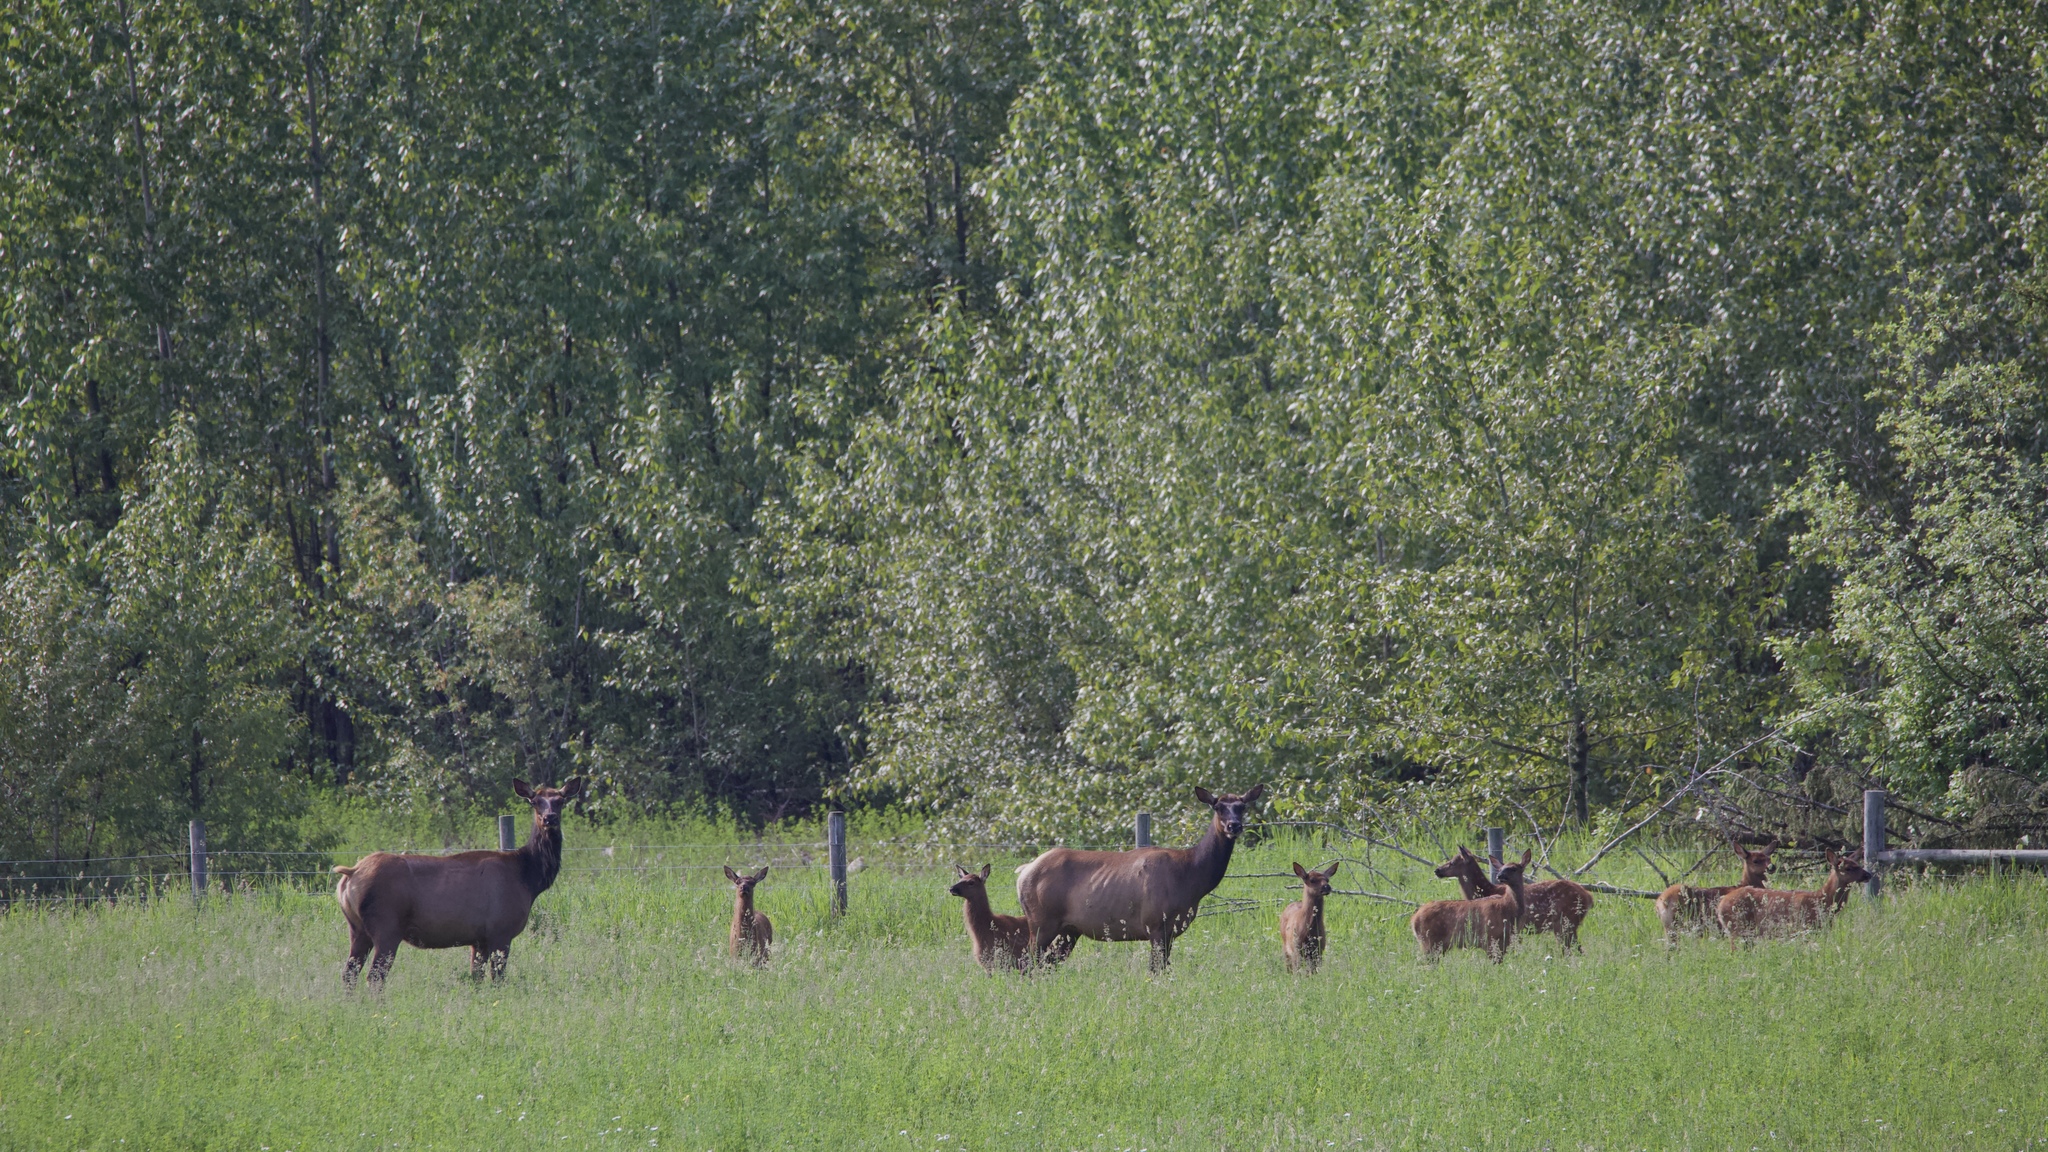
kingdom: Animalia
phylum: Chordata
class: Mammalia
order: Artiodactyla
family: Cervidae
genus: Cervus
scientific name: Cervus elaphus
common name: Red deer
